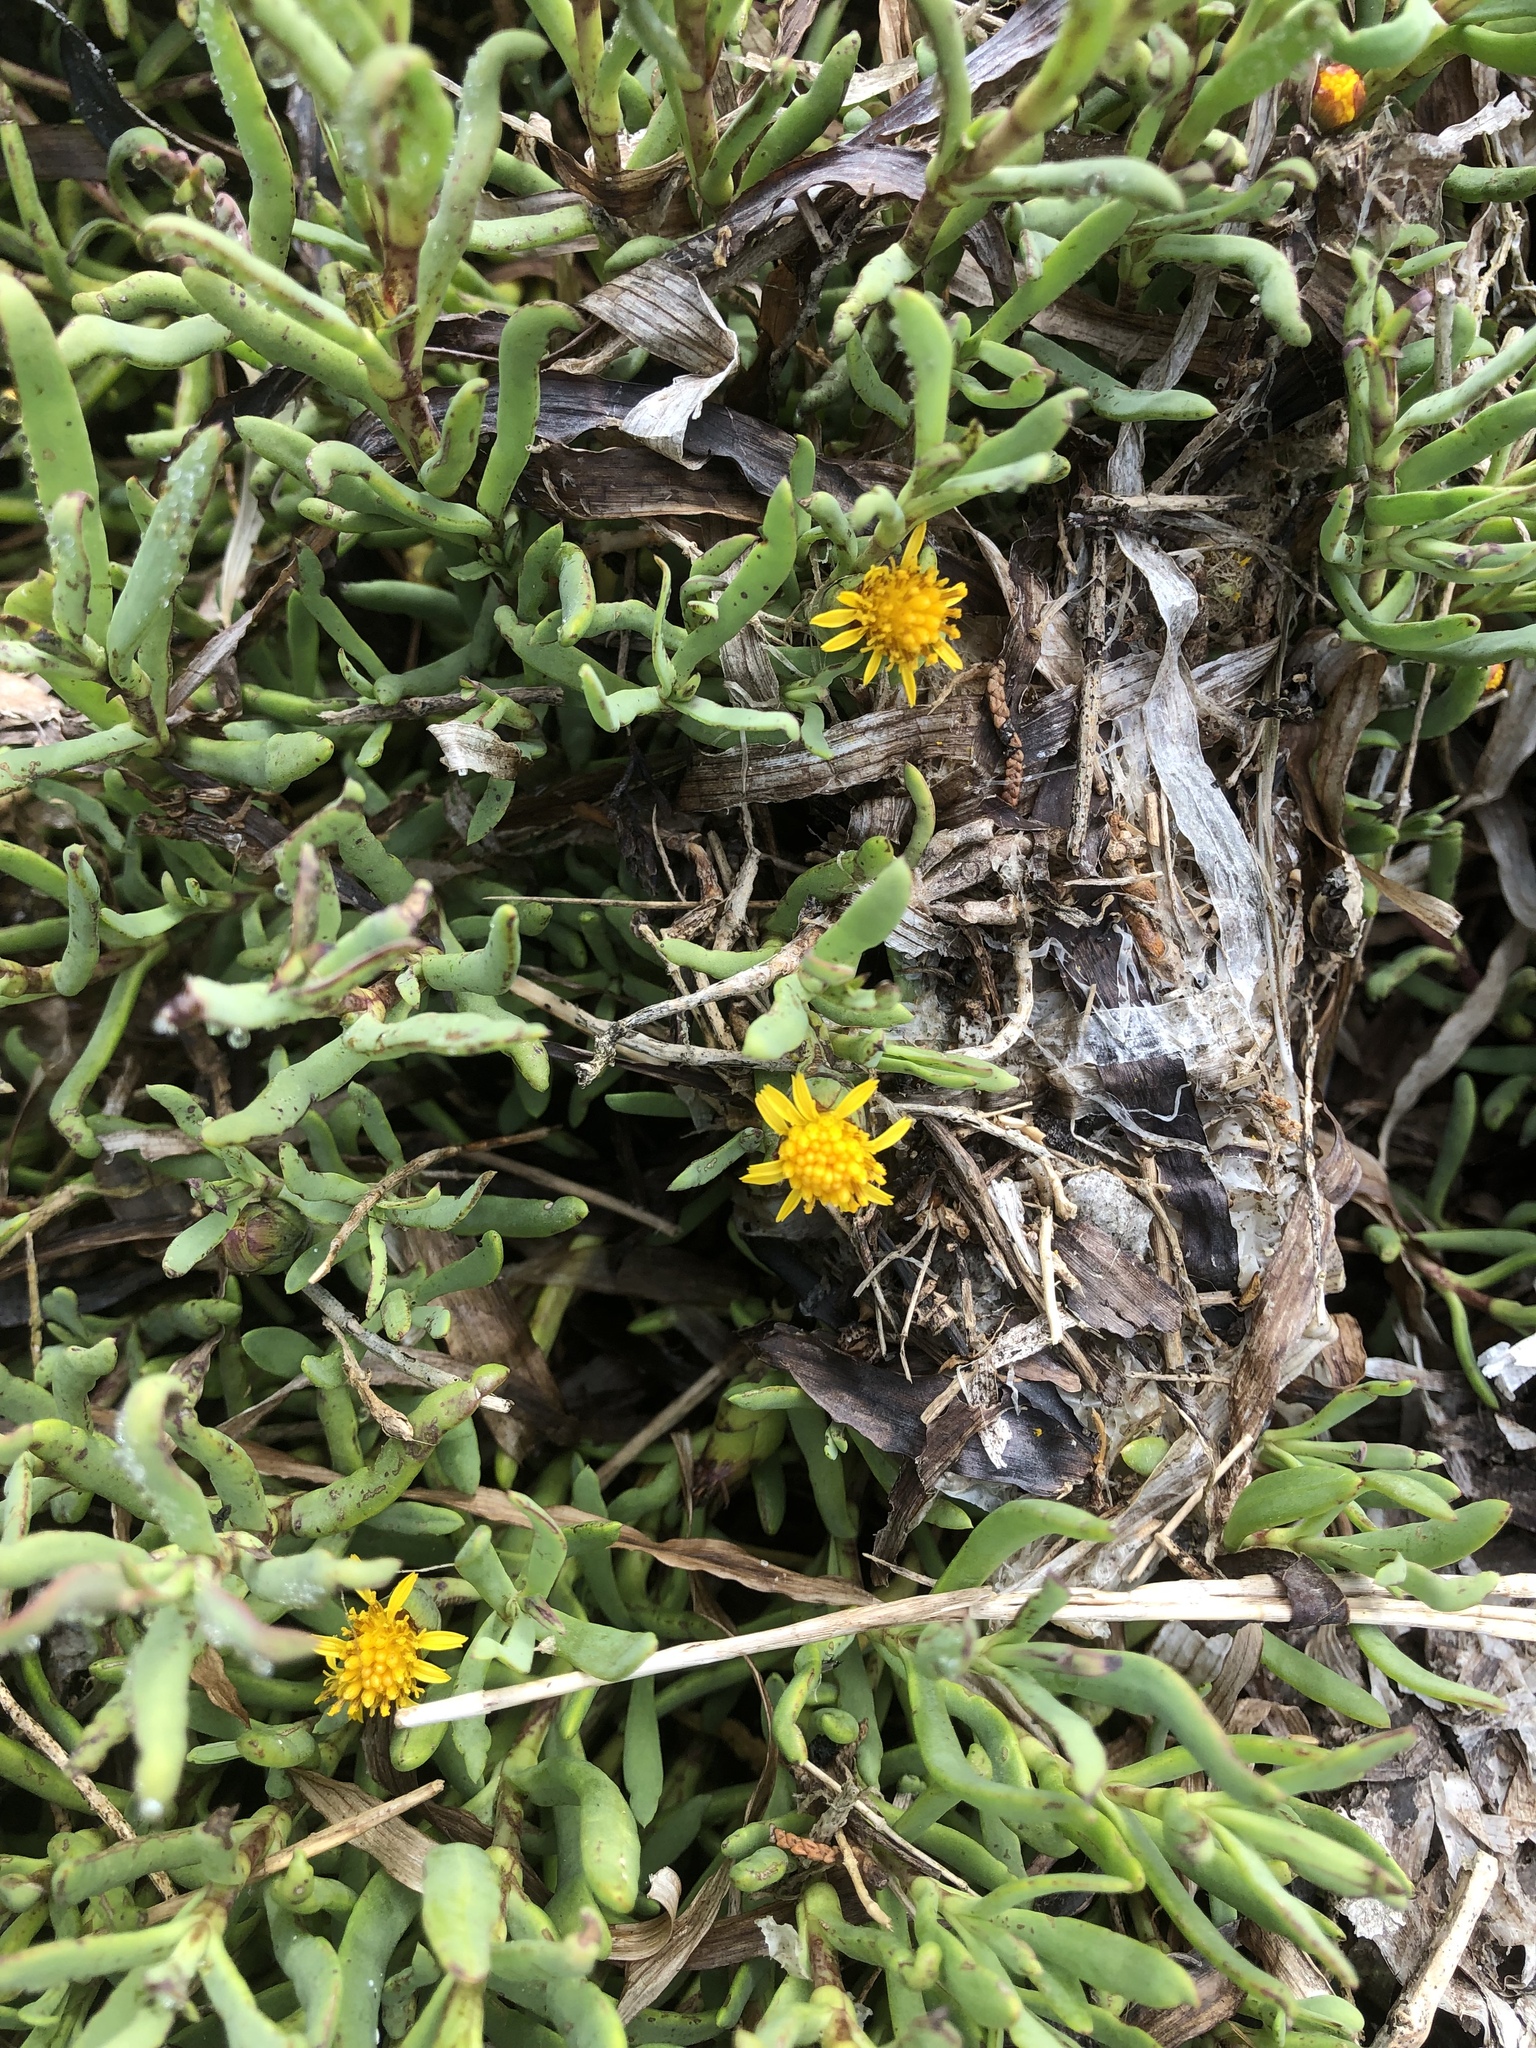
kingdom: Plantae
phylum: Tracheophyta
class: Magnoliopsida
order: Asterales
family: Asteraceae
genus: Jaumea
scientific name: Jaumea carnosa
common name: Fleshy jaumea
